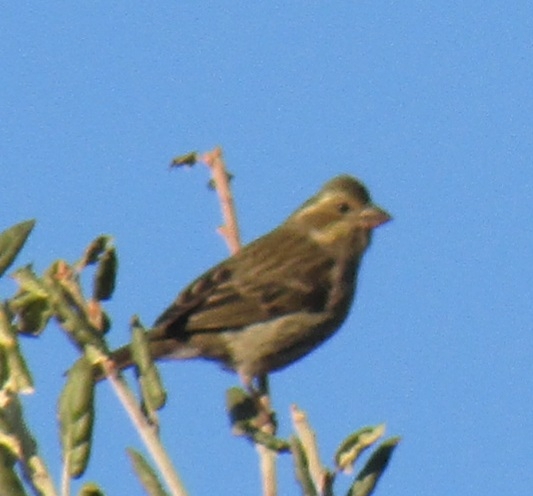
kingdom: Animalia
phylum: Chordata
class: Aves
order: Passeriformes
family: Fringillidae
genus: Haemorhous
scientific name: Haemorhous purpureus
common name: Purple finch
